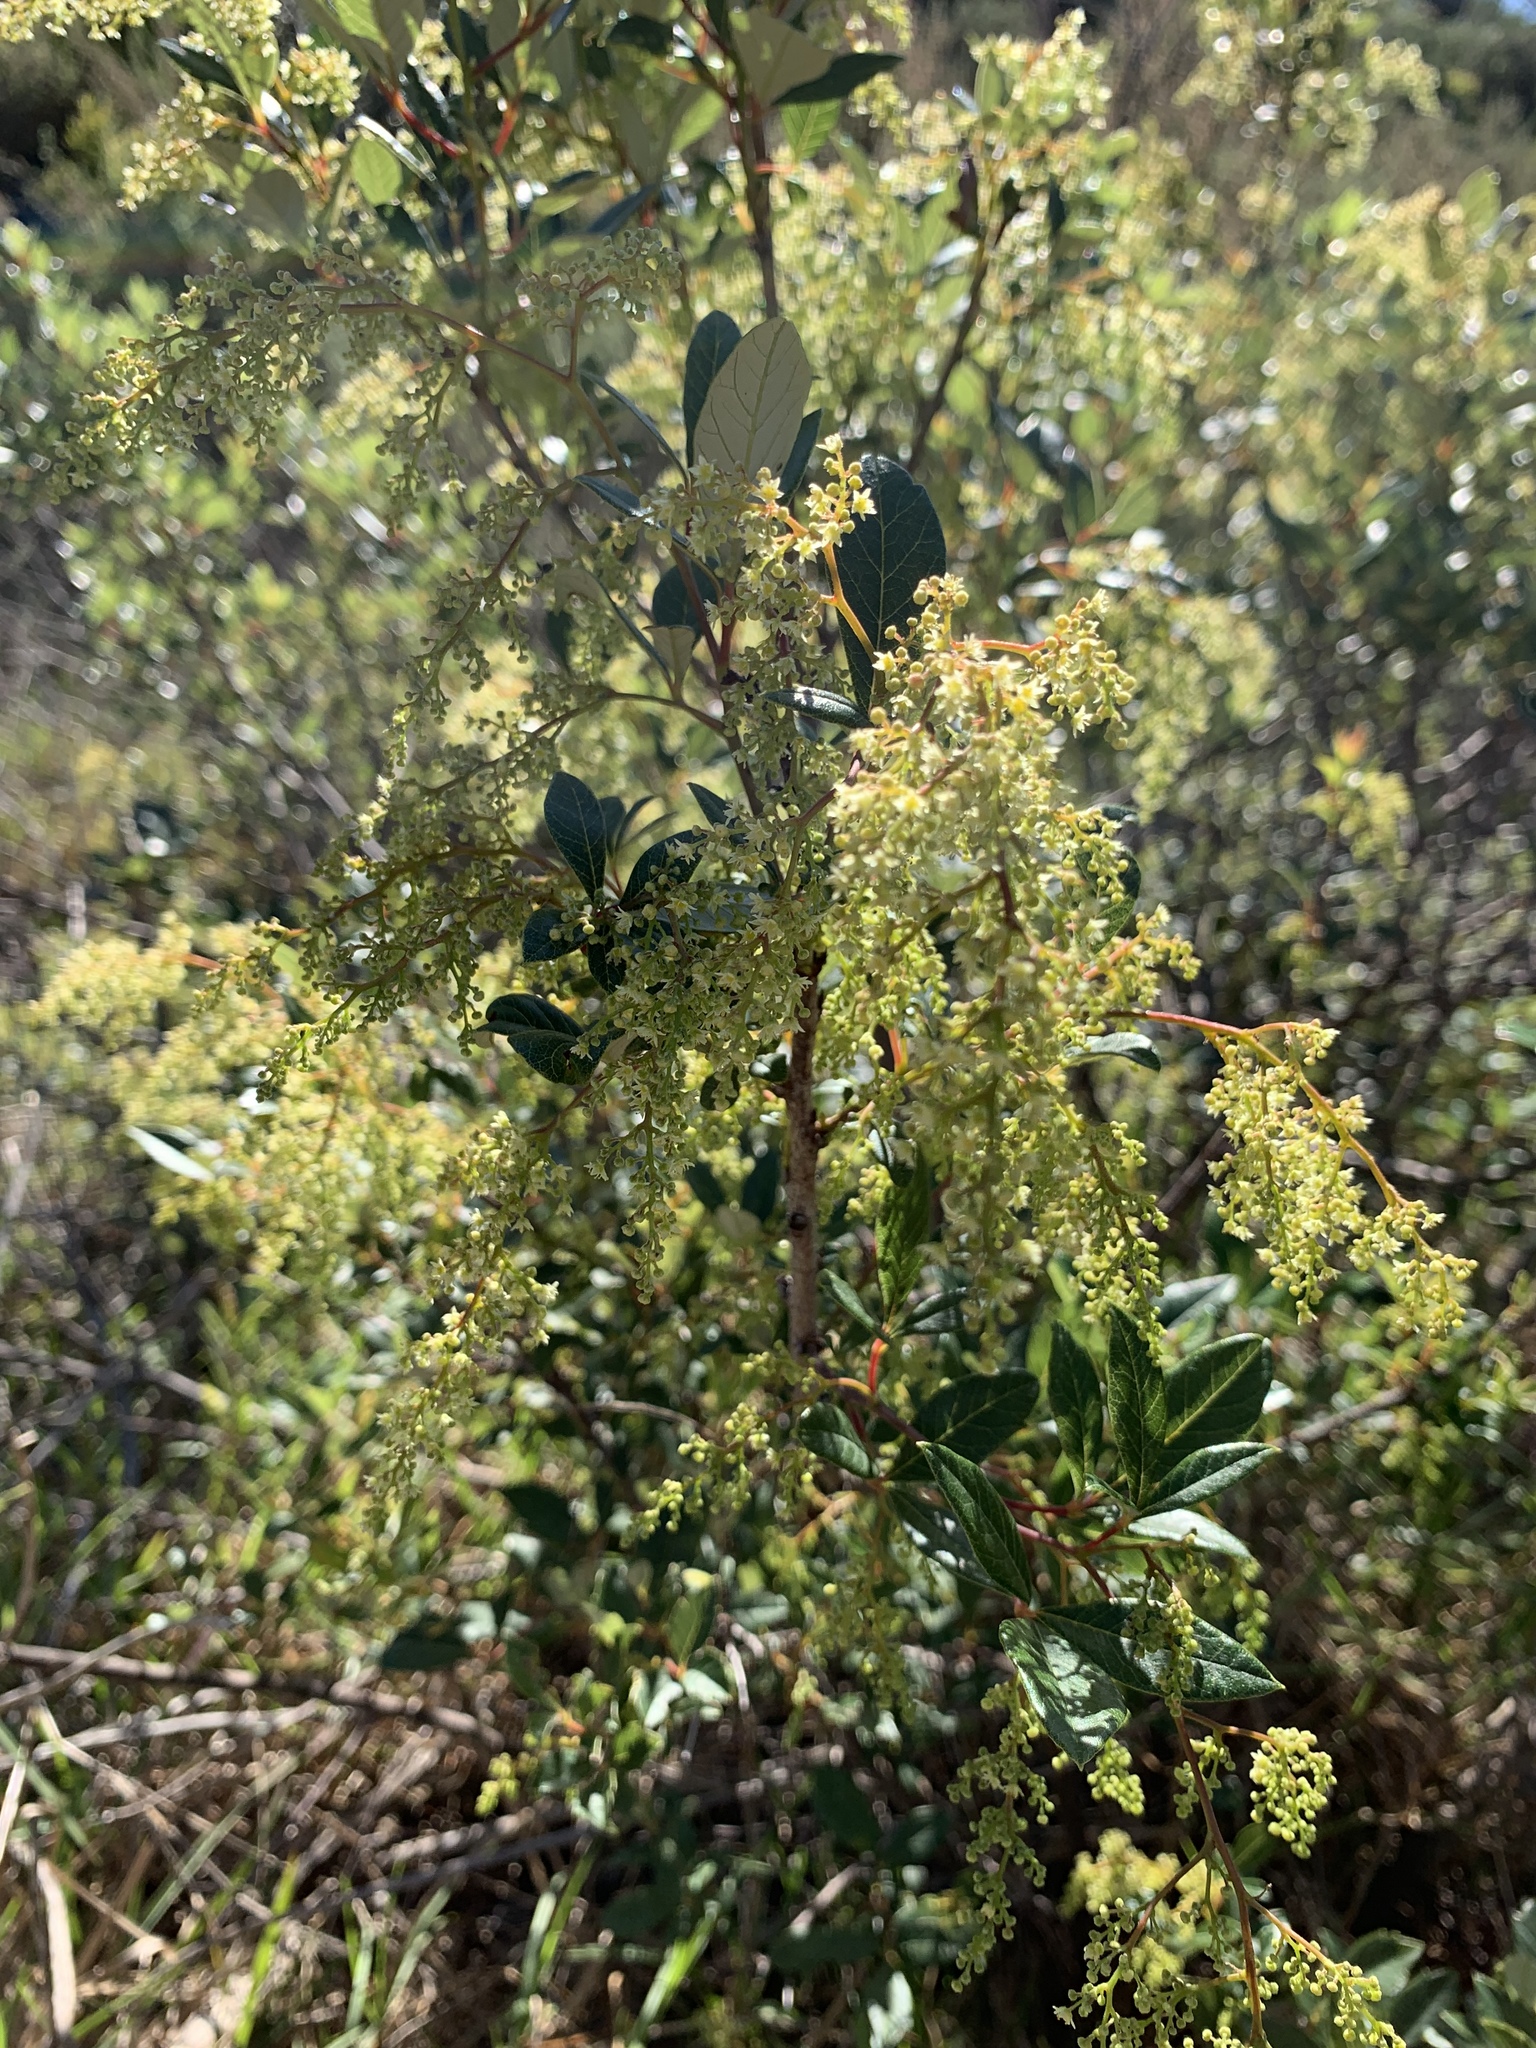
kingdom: Plantae
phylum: Tracheophyta
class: Magnoliopsida
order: Sapindales
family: Anacardiaceae
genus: Searsia
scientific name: Searsia tomentosa
